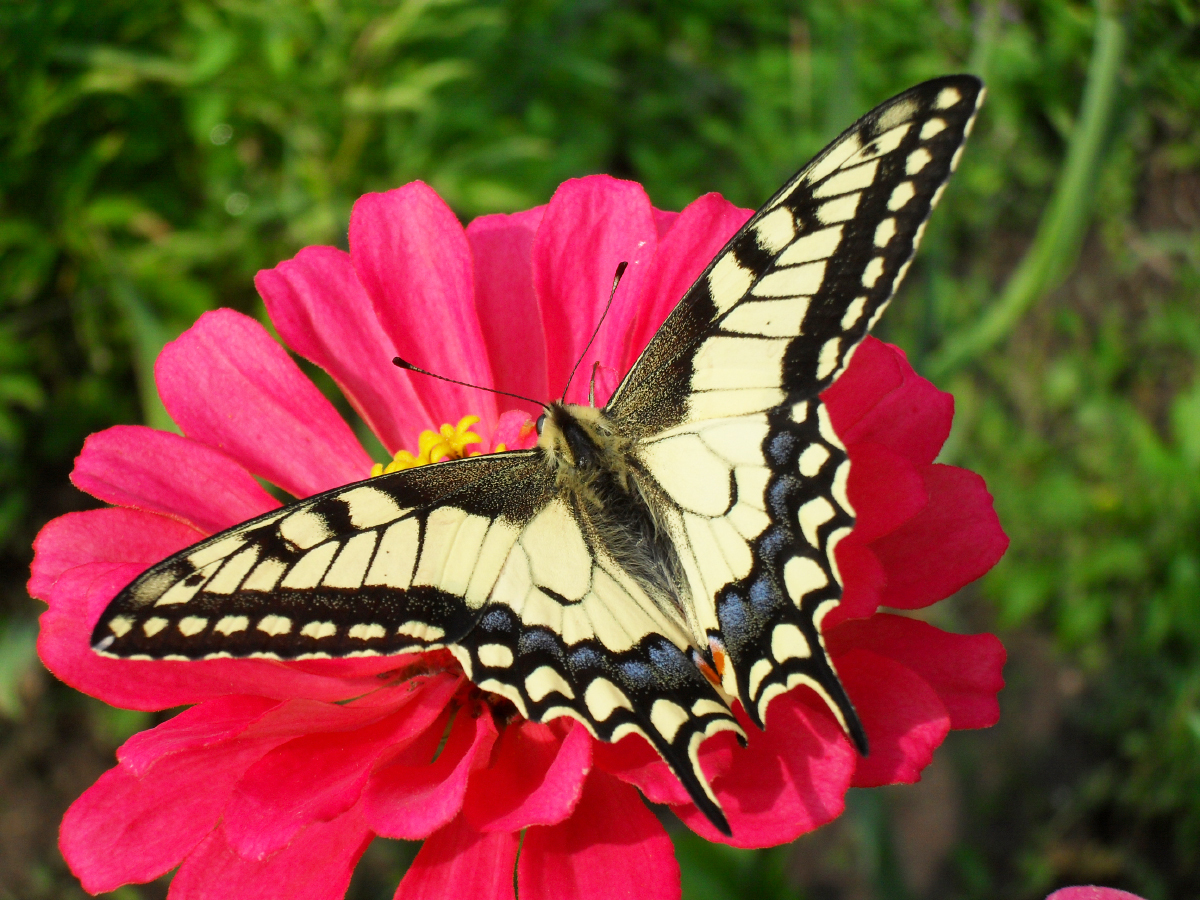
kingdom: Animalia
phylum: Arthropoda
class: Insecta
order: Lepidoptera
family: Papilionidae
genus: Papilio
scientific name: Papilio machaon
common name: Swallowtail
